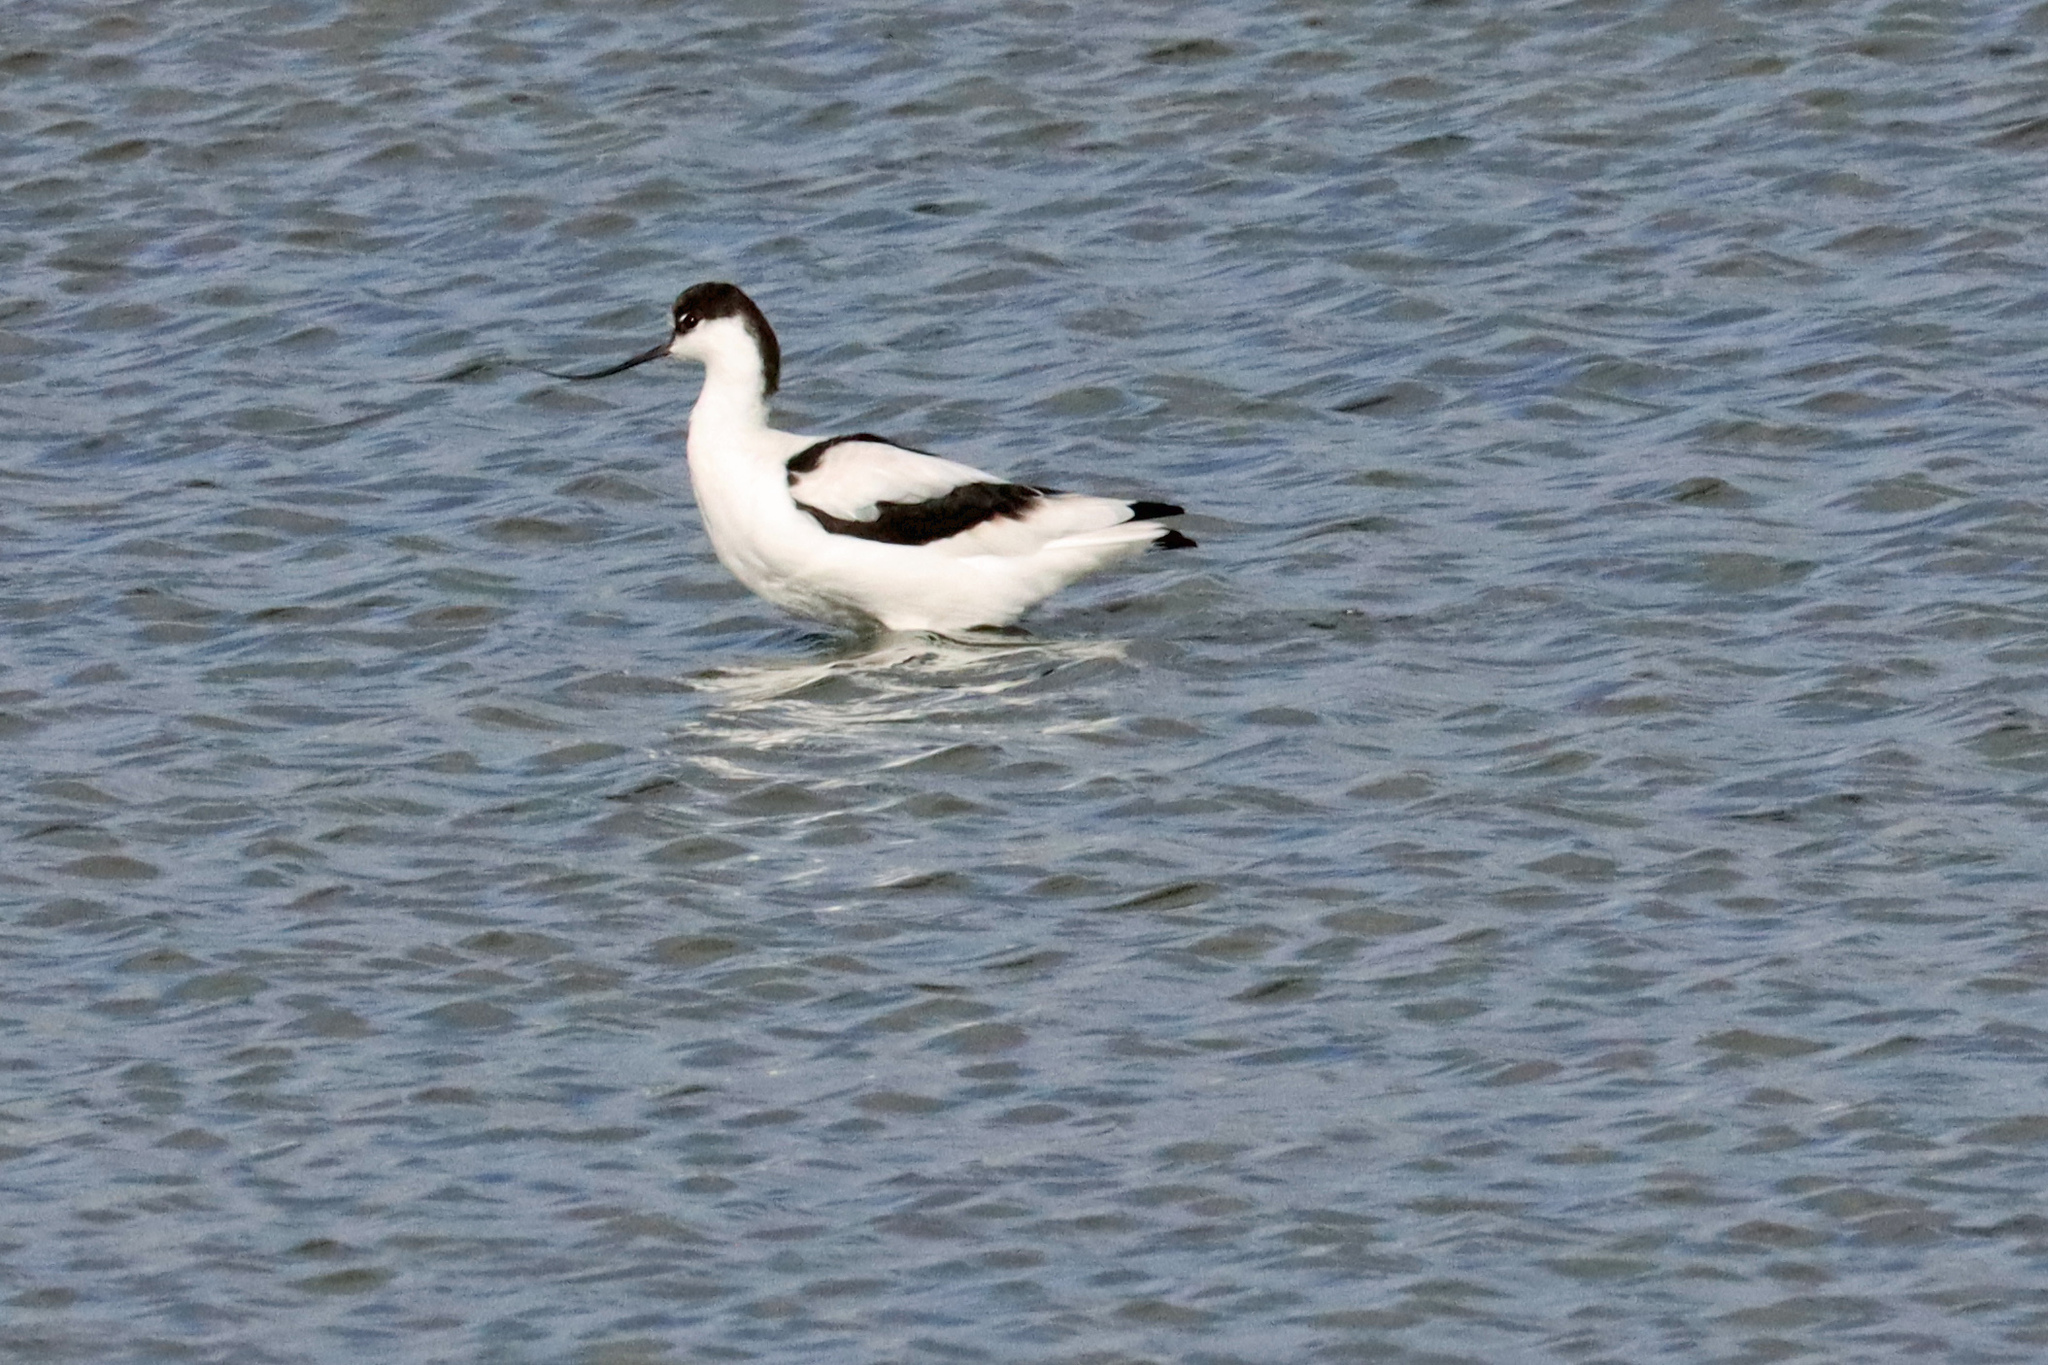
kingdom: Animalia
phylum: Chordata
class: Aves
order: Charadriiformes
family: Recurvirostridae
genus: Recurvirostra
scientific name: Recurvirostra avosetta
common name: Pied avocet
